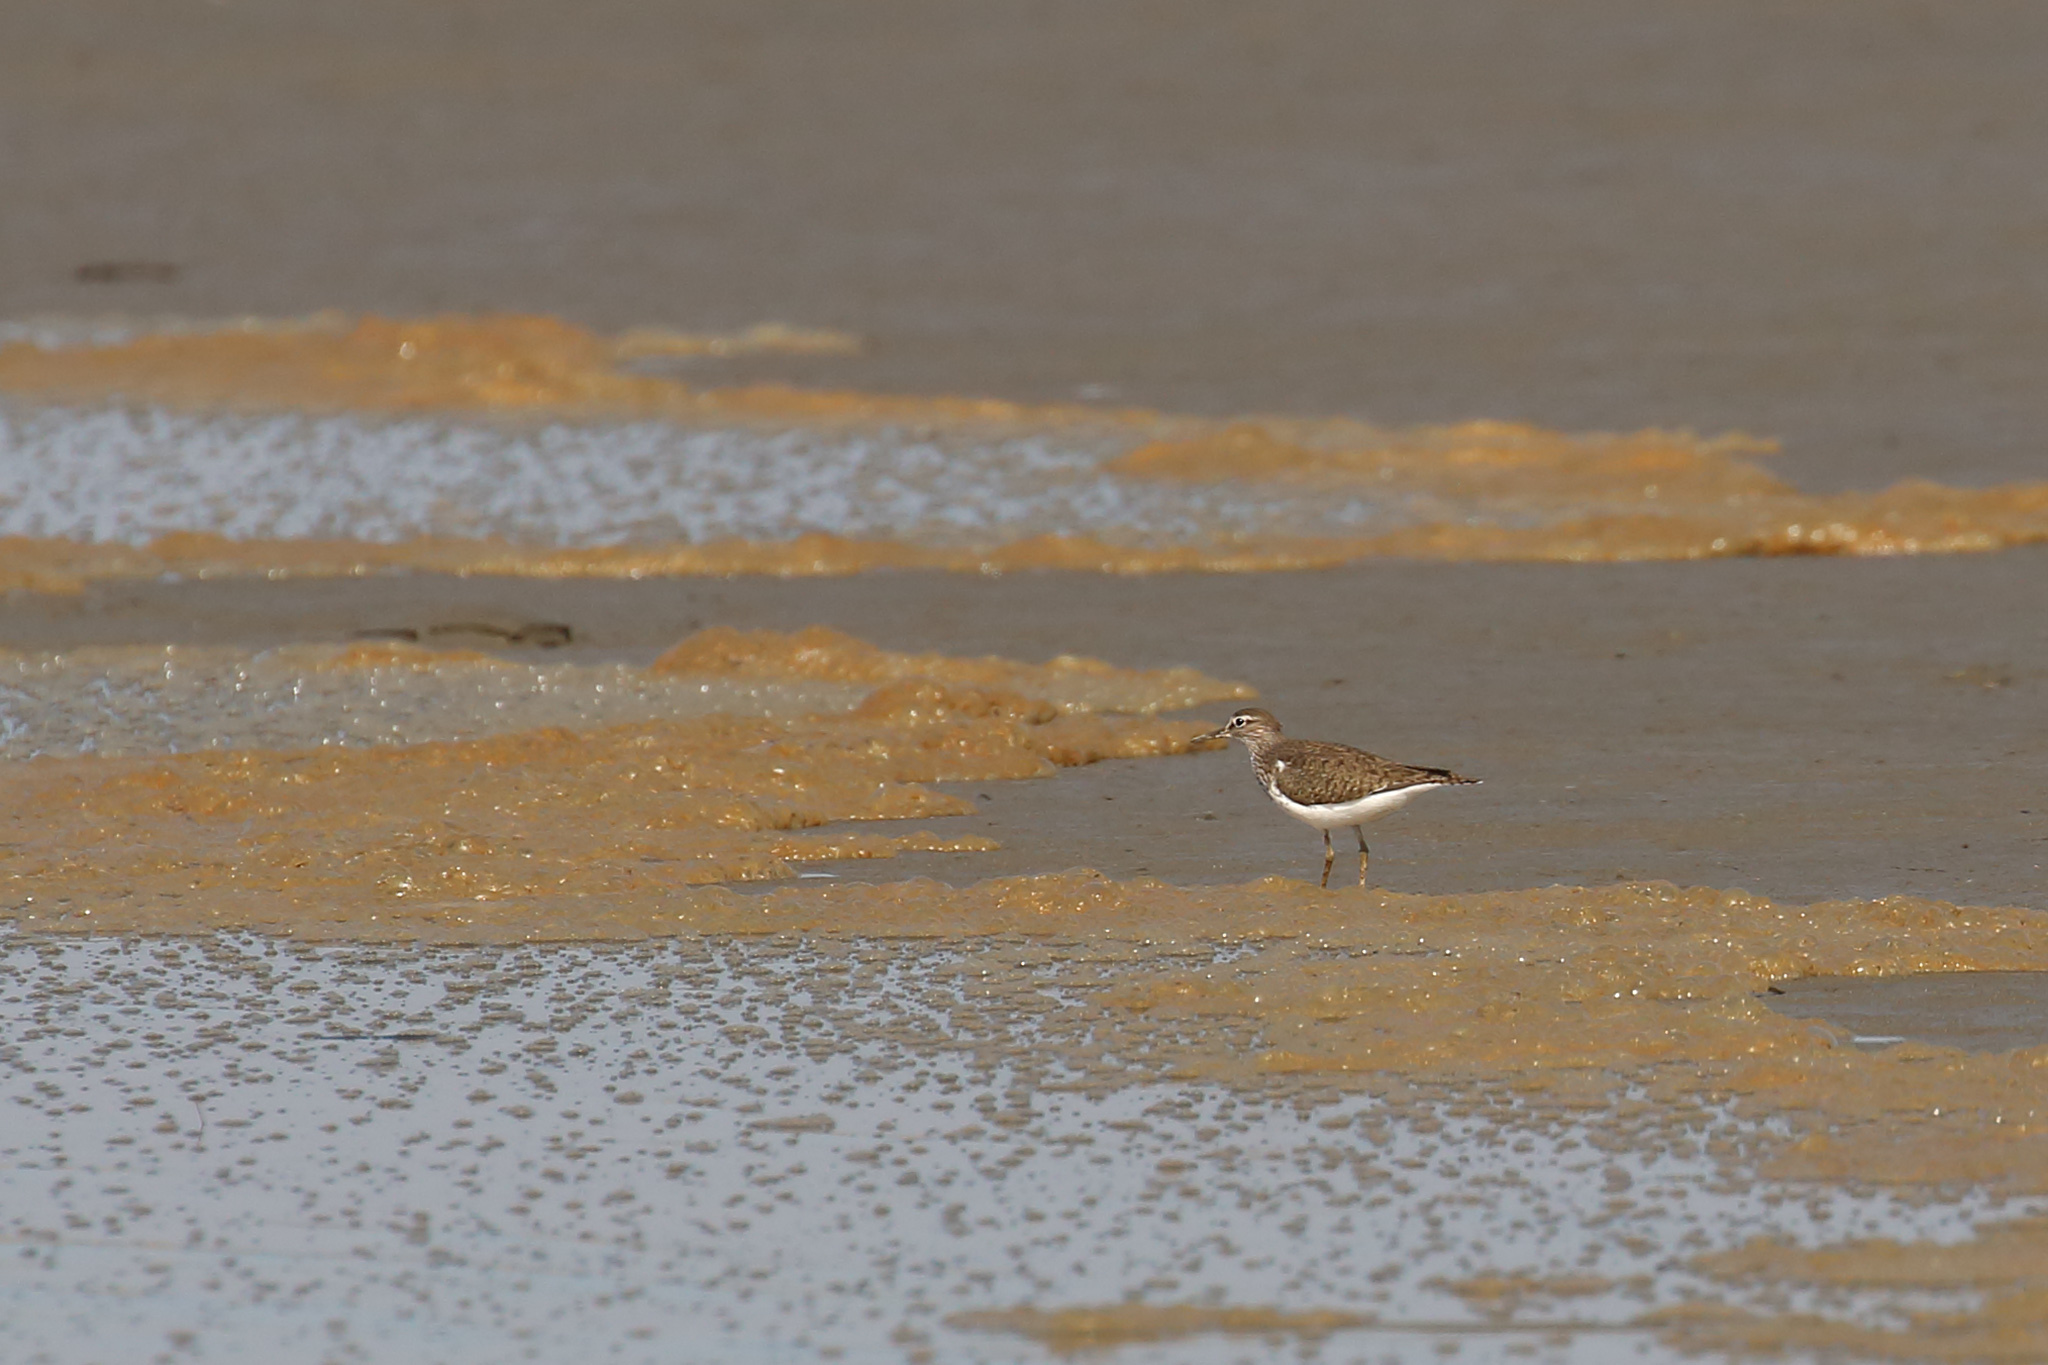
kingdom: Animalia
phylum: Chordata
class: Aves
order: Charadriiformes
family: Scolopacidae
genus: Actitis
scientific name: Actitis hypoleucos
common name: Common sandpiper
